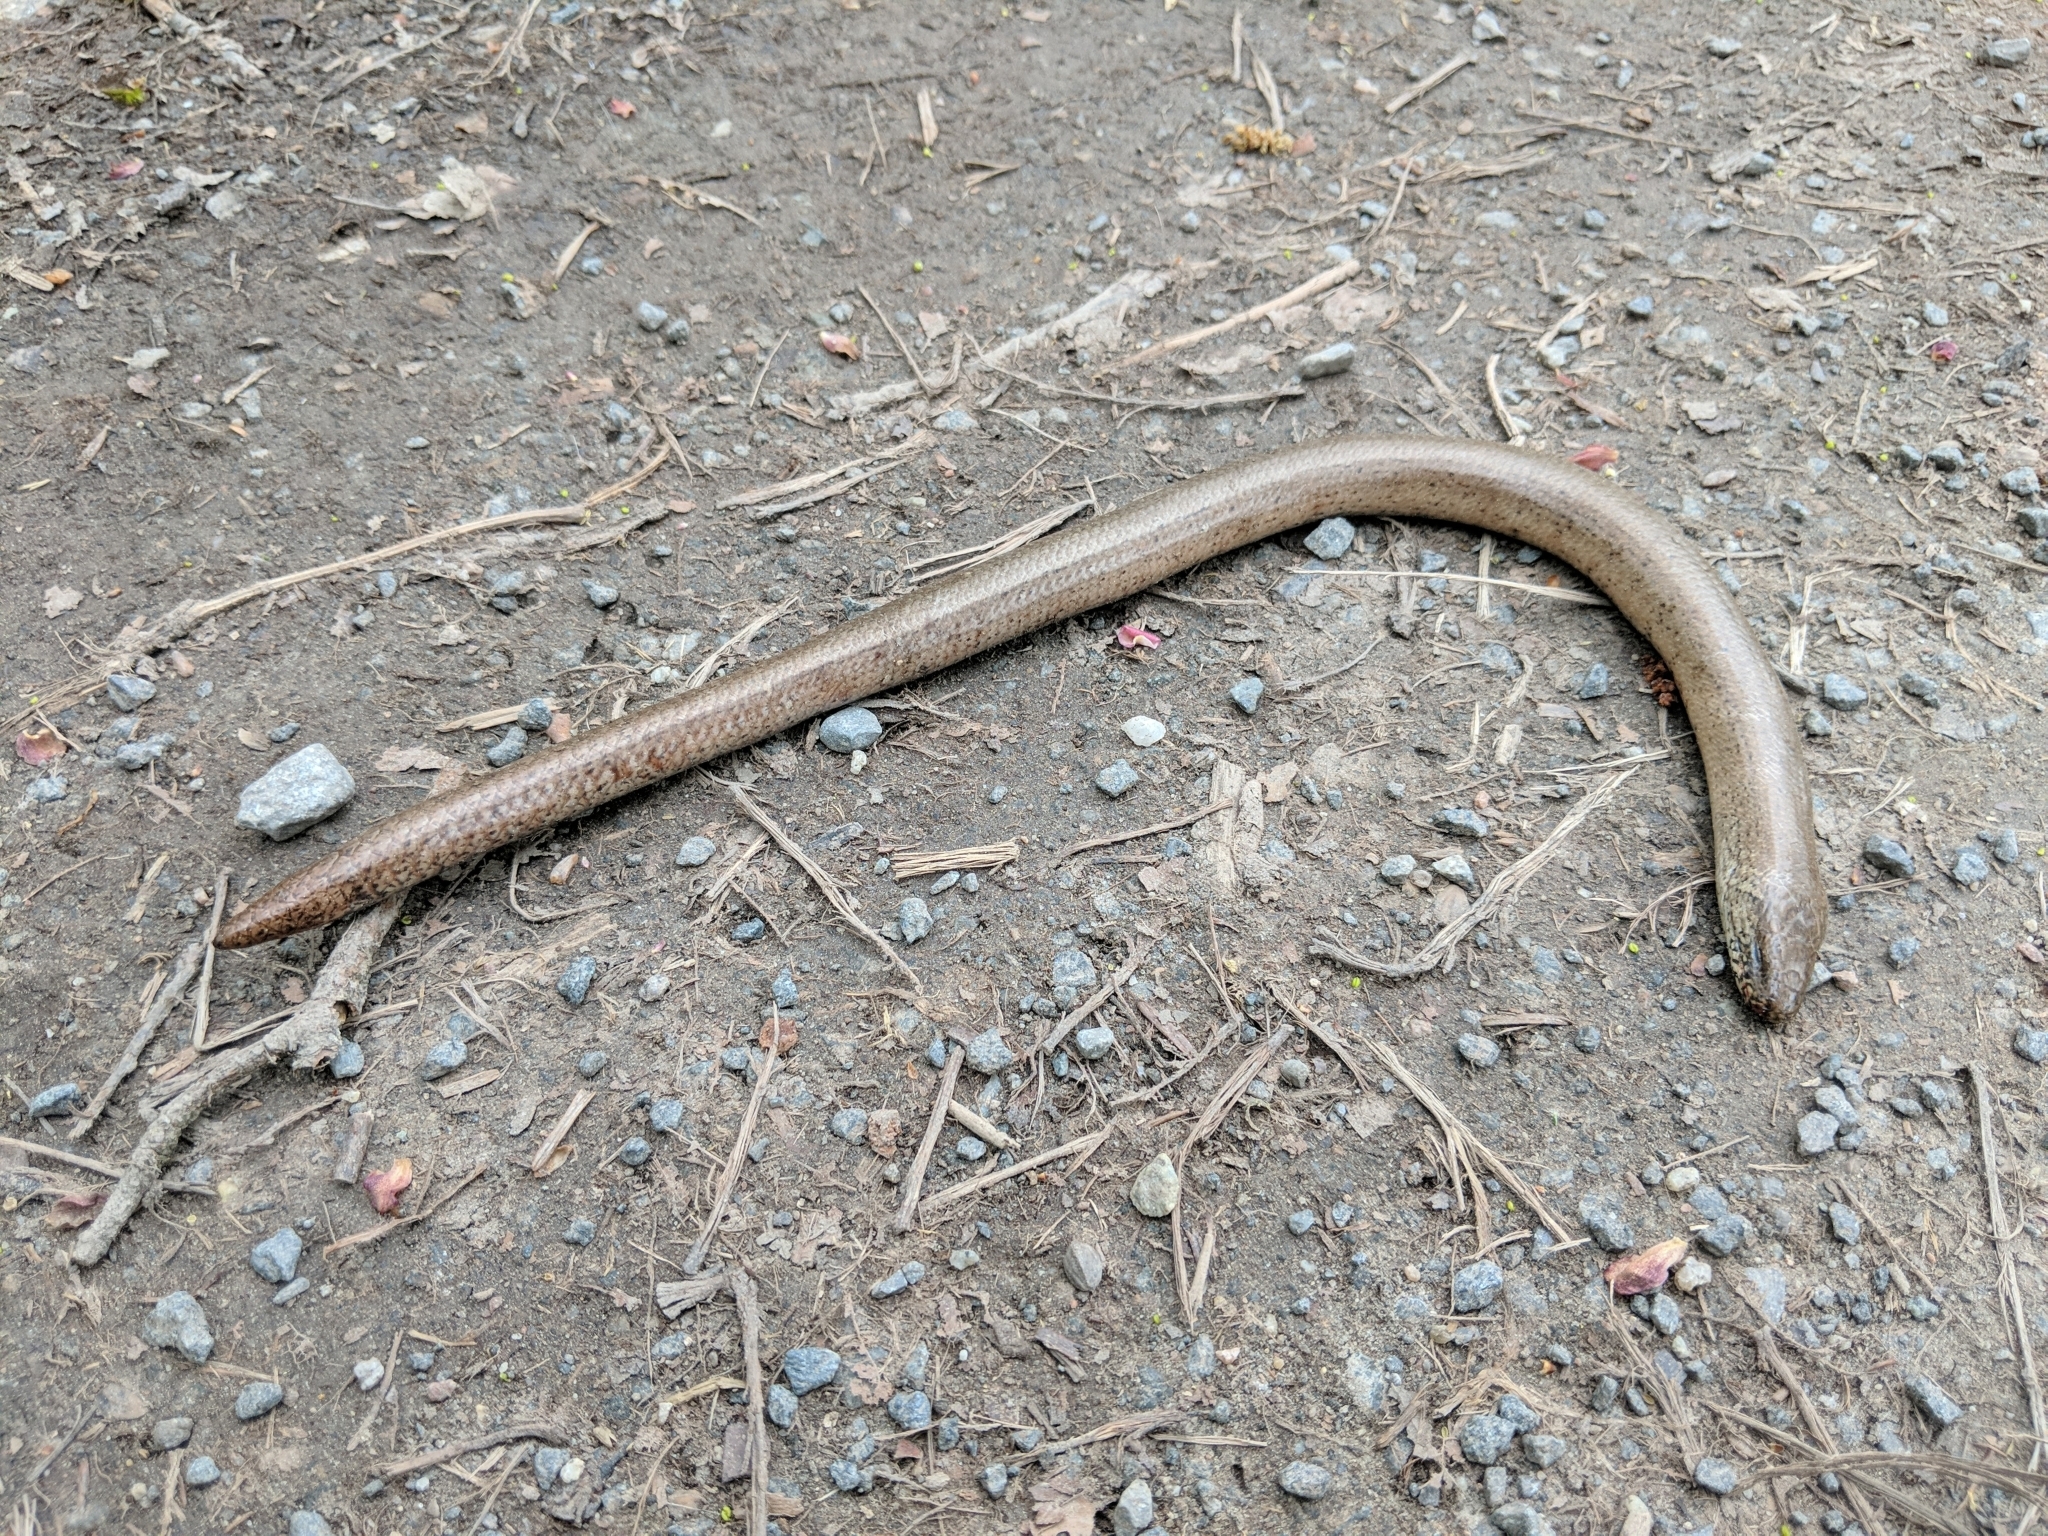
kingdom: Animalia
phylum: Chordata
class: Squamata
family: Anguidae
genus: Anguis
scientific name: Anguis fragilis
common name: Slow worm
